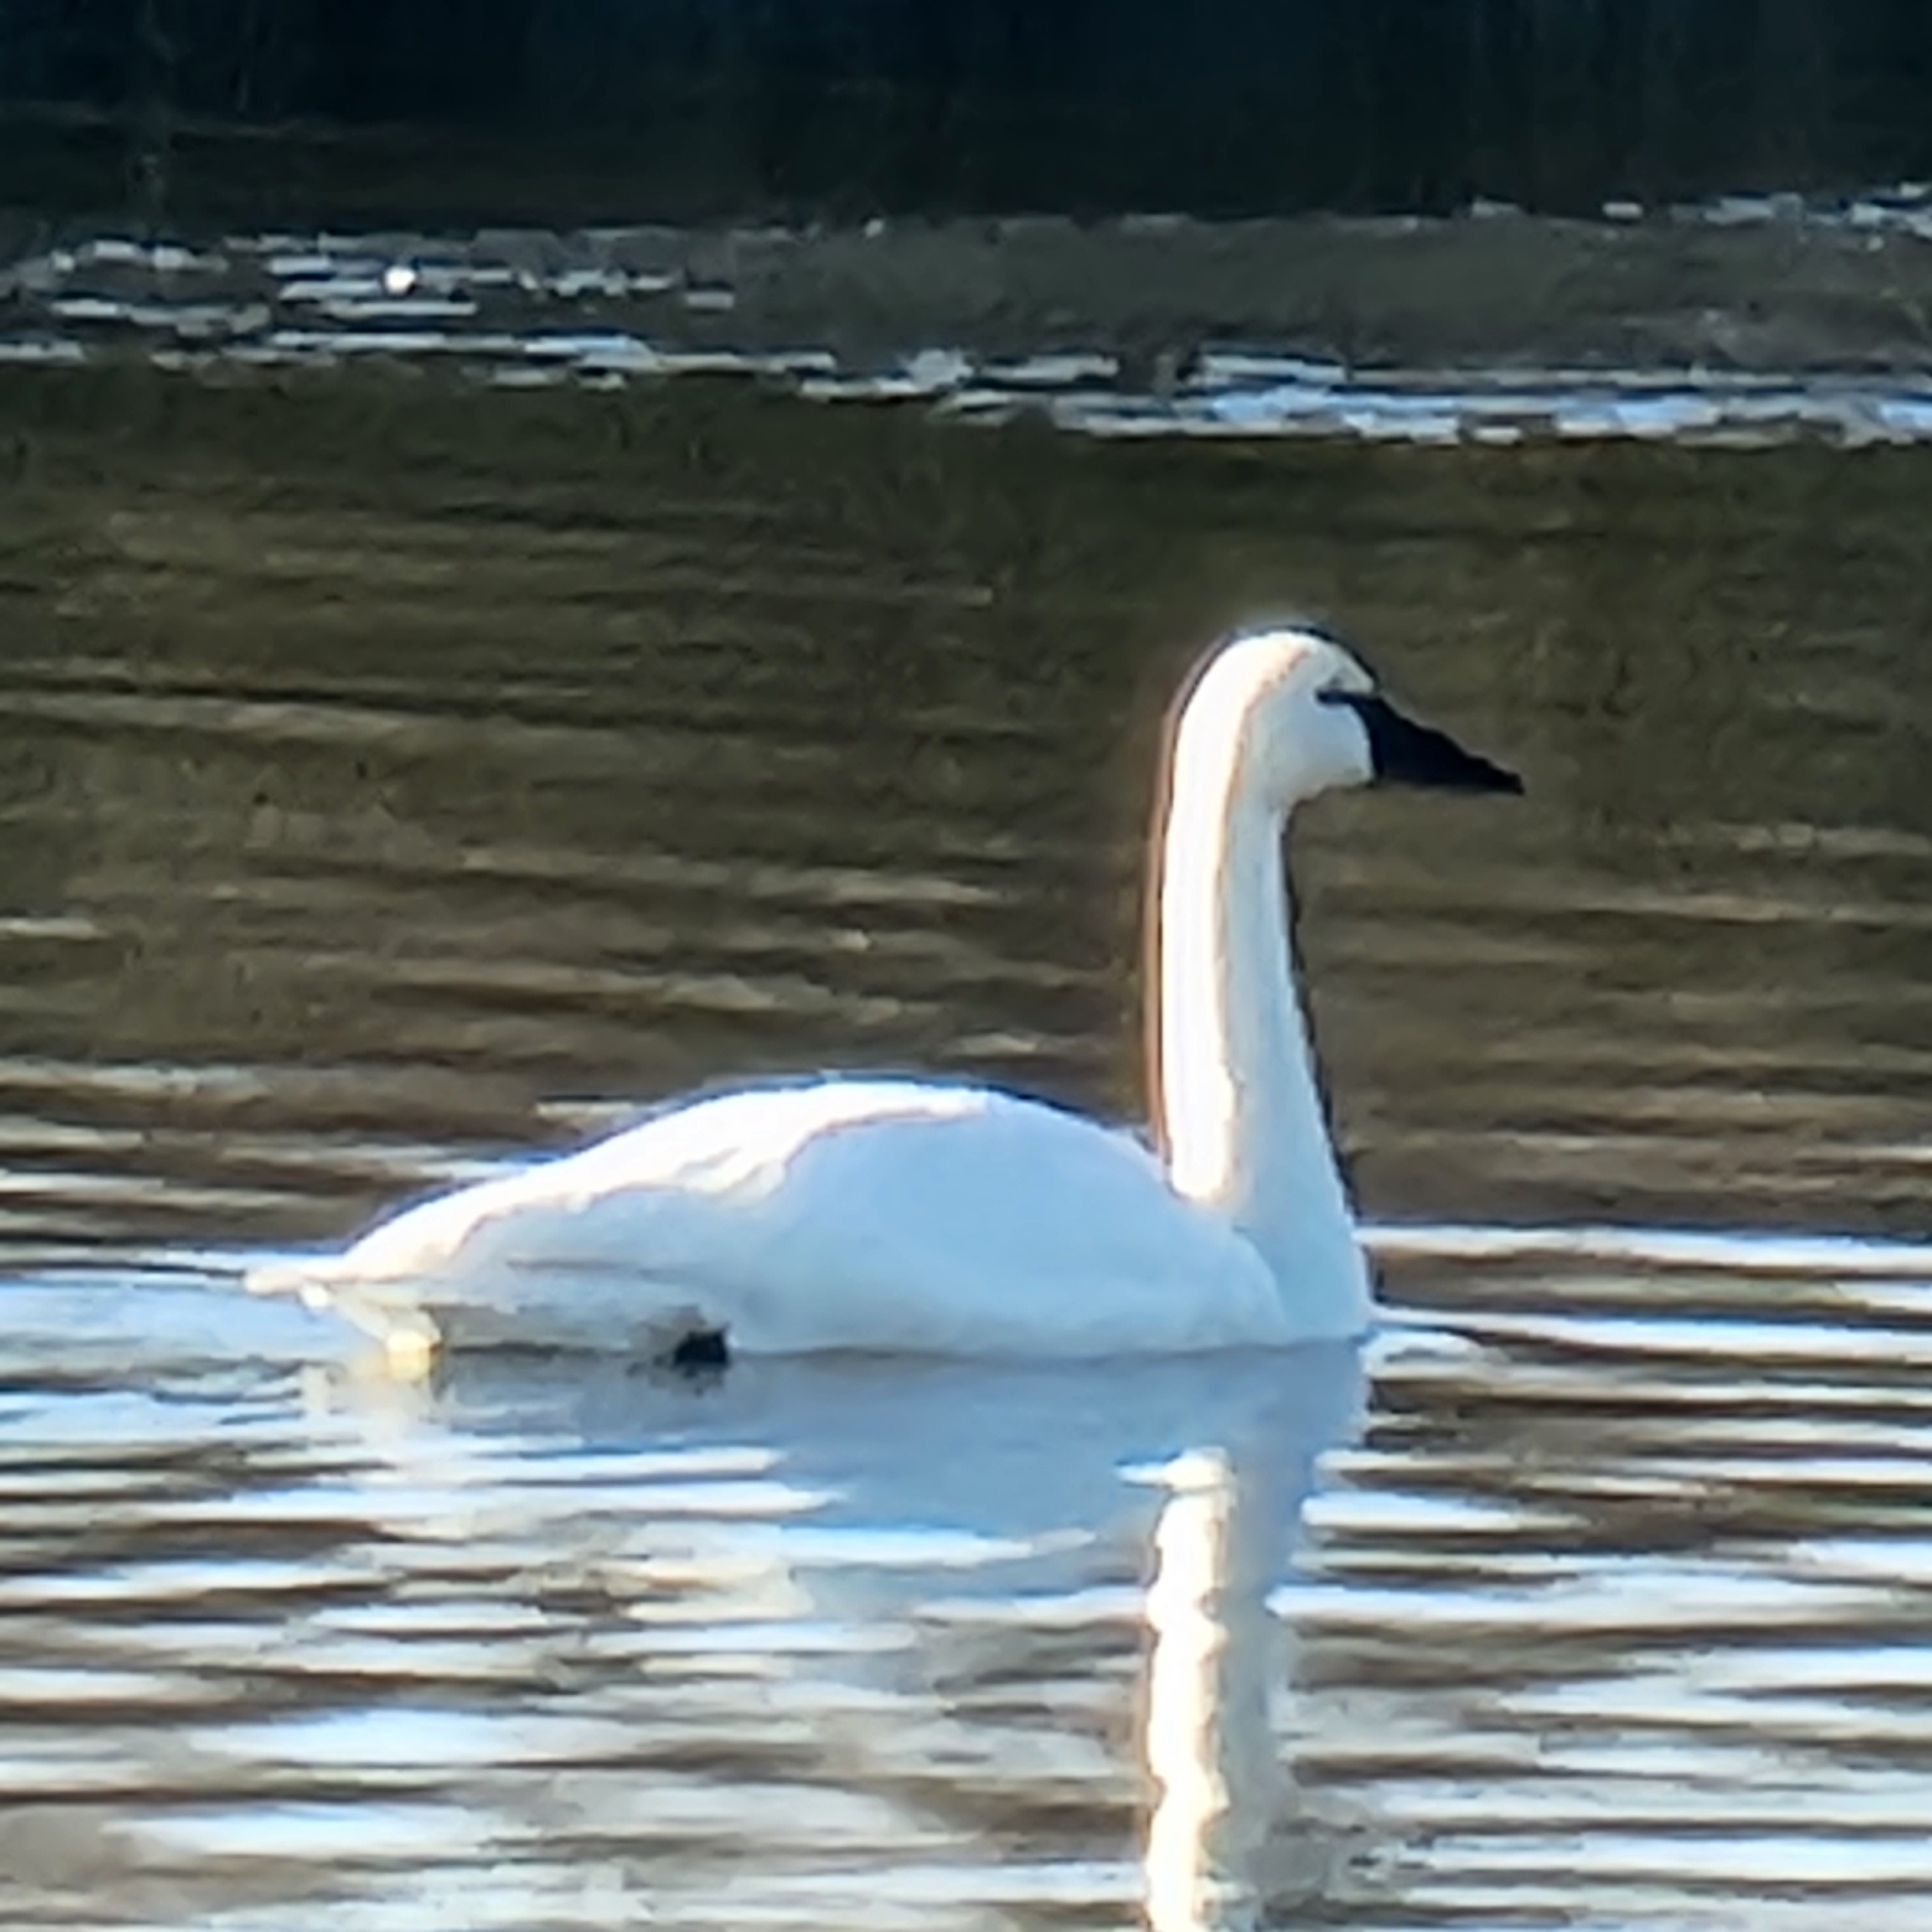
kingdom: Animalia
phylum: Chordata
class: Aves
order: Anseriformes
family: Anatidae
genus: Cygnus
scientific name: Cygnus columbianus
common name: Tundra swan
